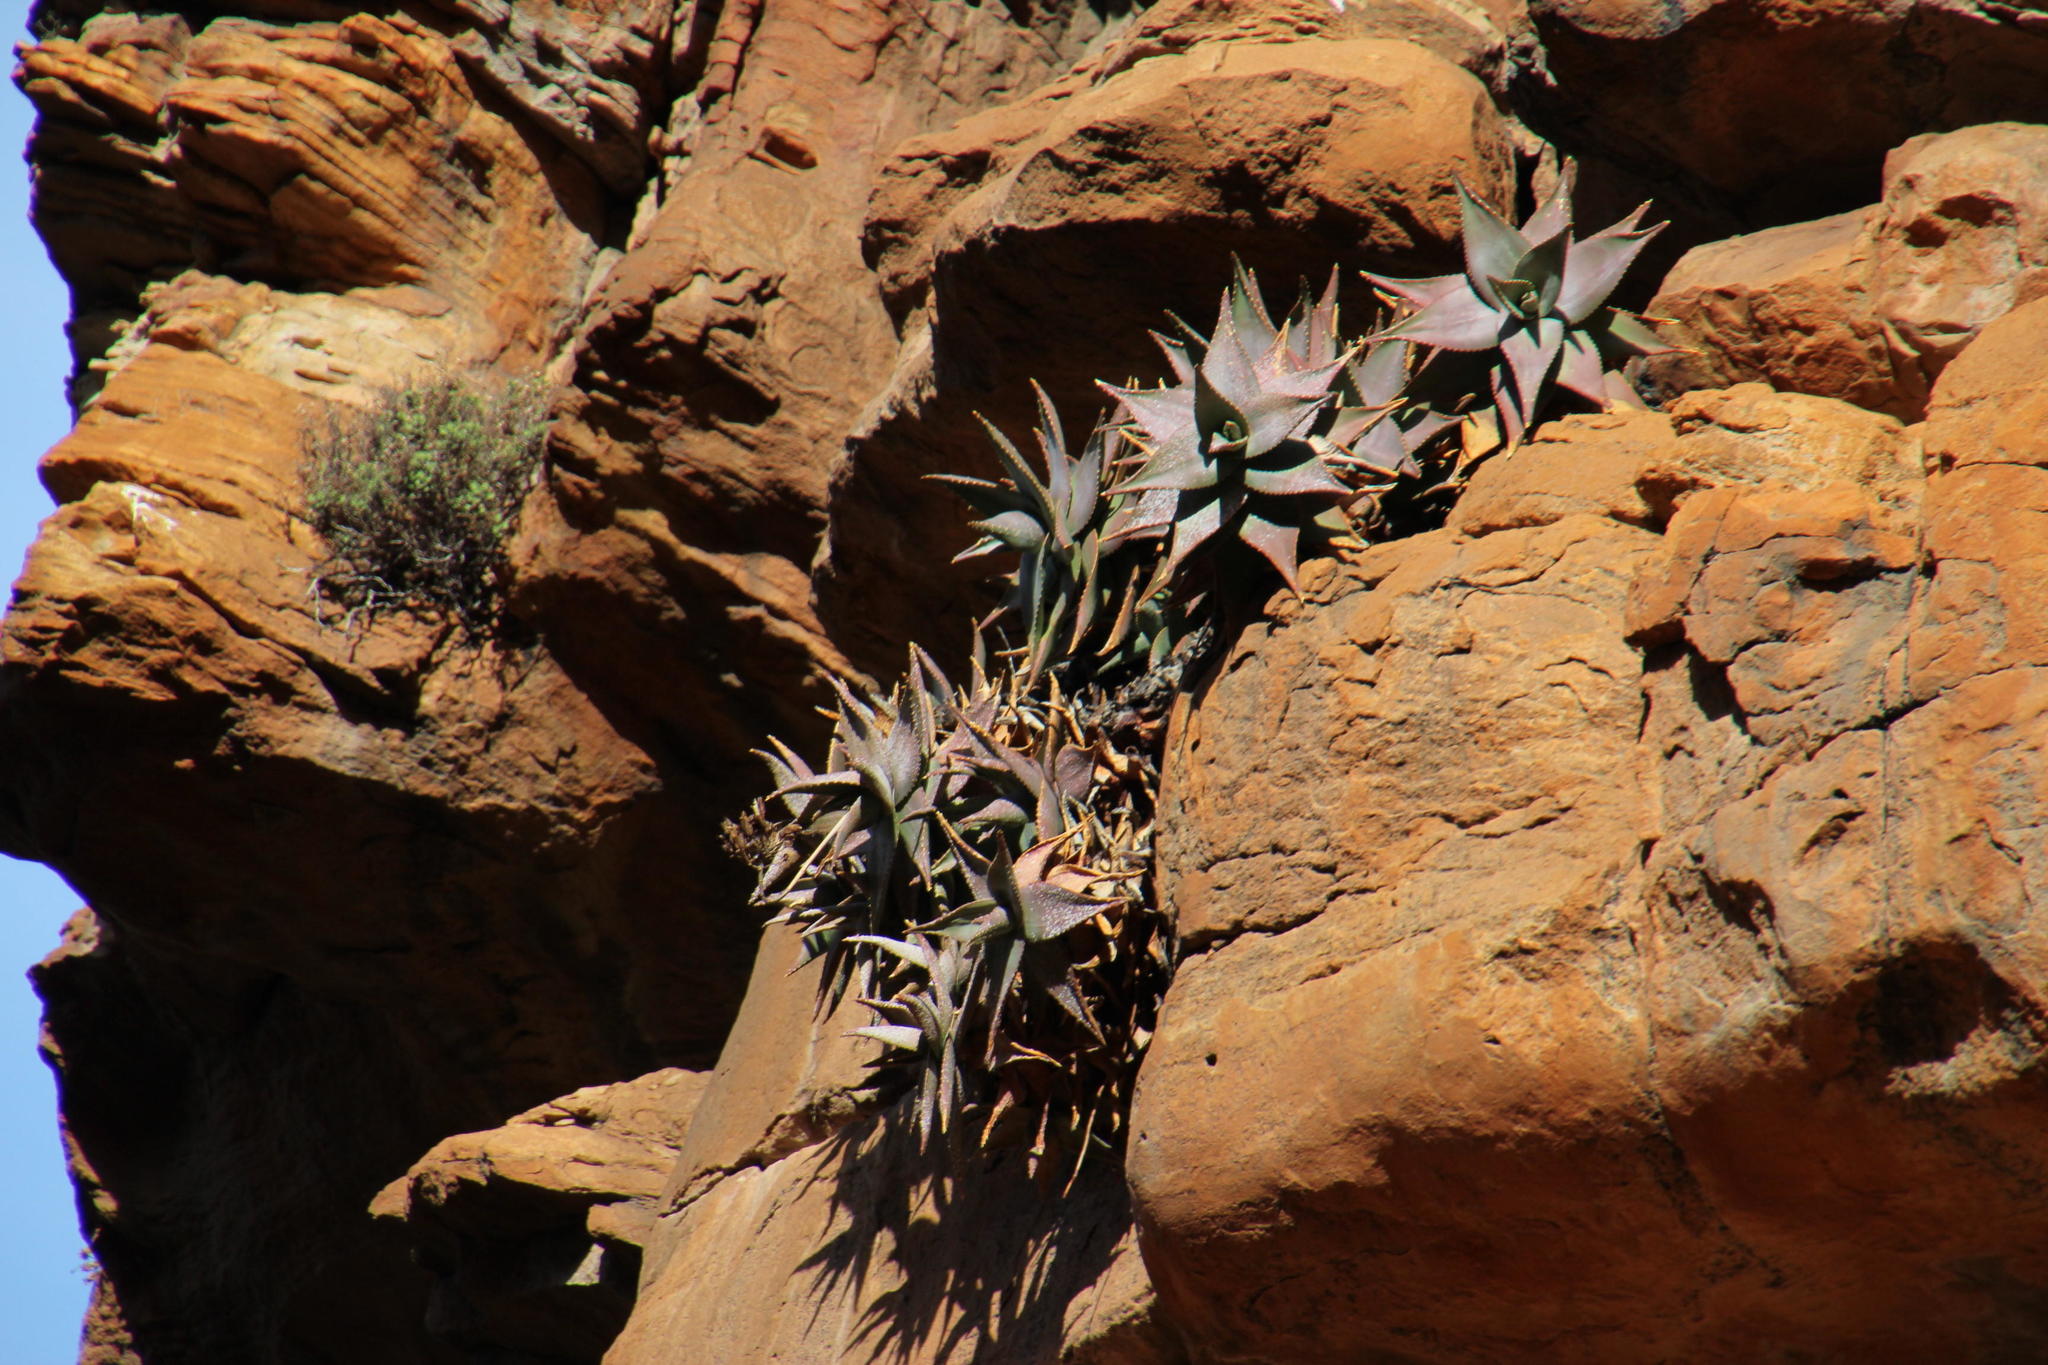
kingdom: Plantae
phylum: Tracheophyta
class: Liliopsida
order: Asparagales
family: Asphodelaceae
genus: Aloe
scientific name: Aloe perfoliata
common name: Mitra aloe
